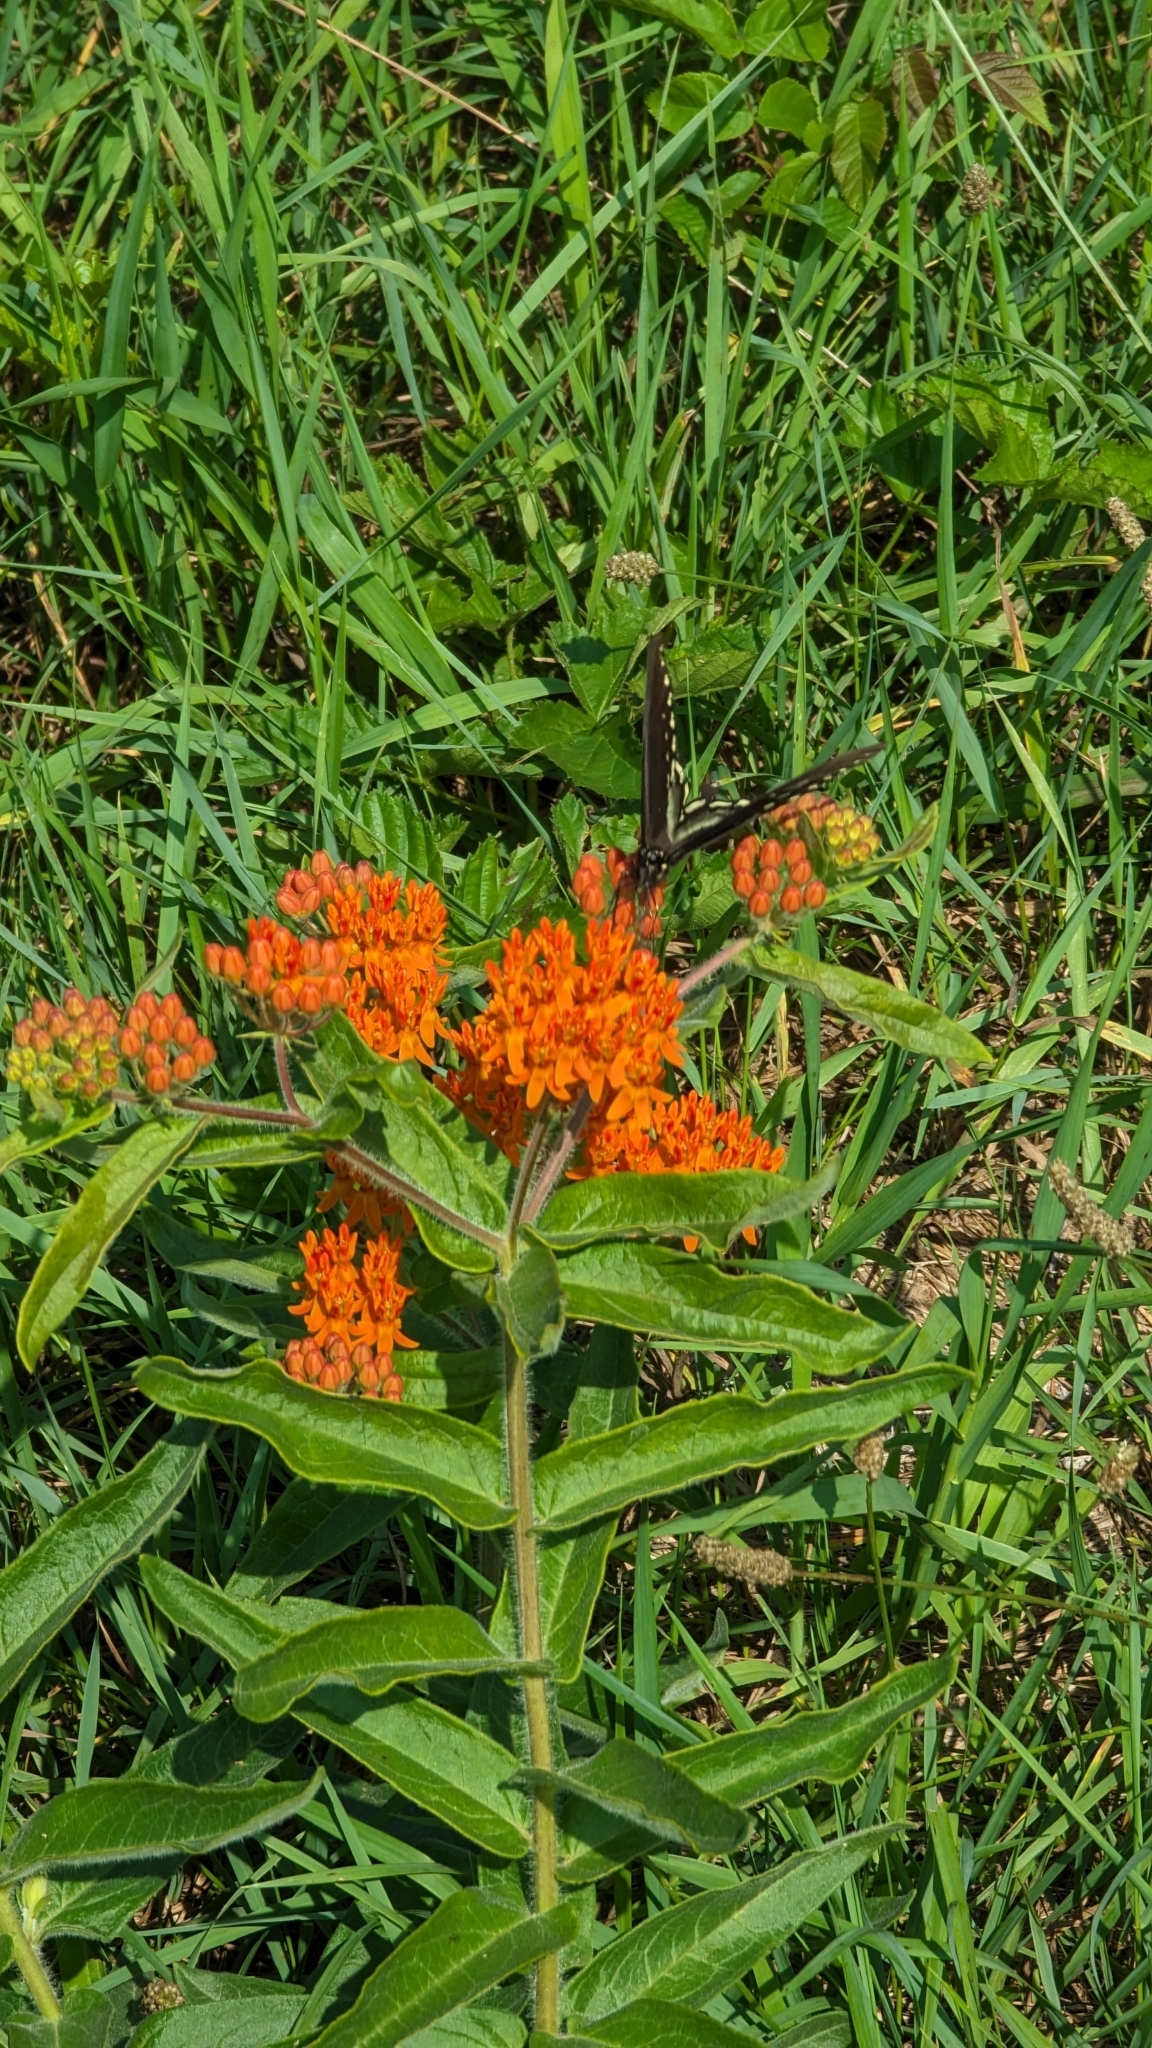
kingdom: Plantae
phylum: Tracheophyta
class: Magnoliopsida
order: Gentianales
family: Apocynaceae
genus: Asclepias
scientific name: Asclepias tuberosa
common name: Butterfly milkweed
